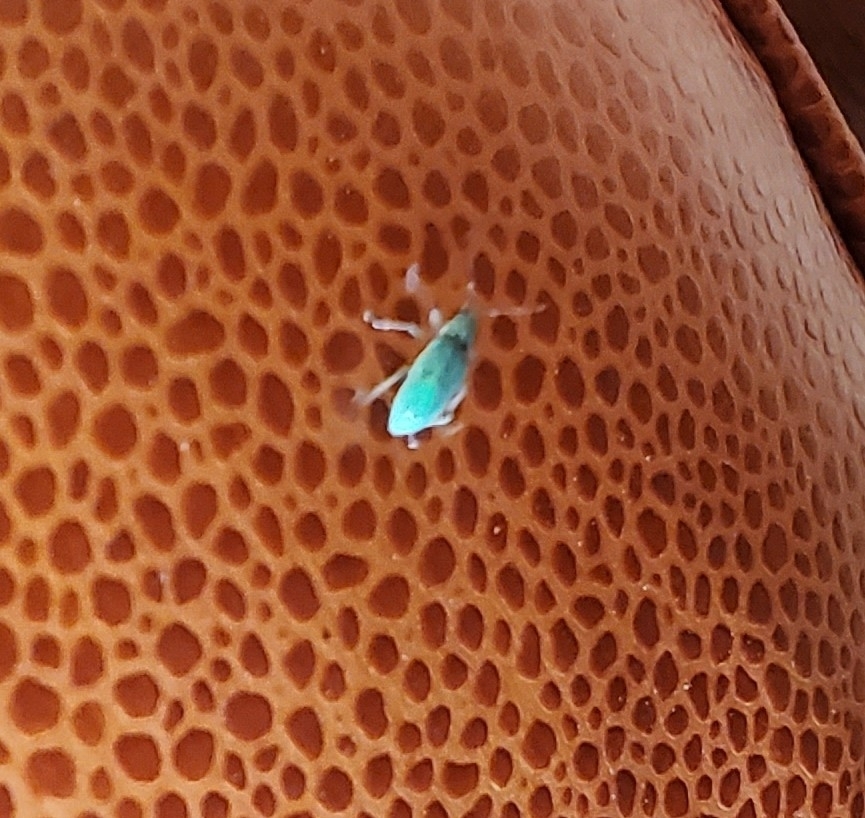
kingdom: Animalia
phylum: Arthropoda
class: Insecta
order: Coleoptera
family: Curculionidae
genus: Polydrusus
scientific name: Polydrusus formosus
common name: Weevil
